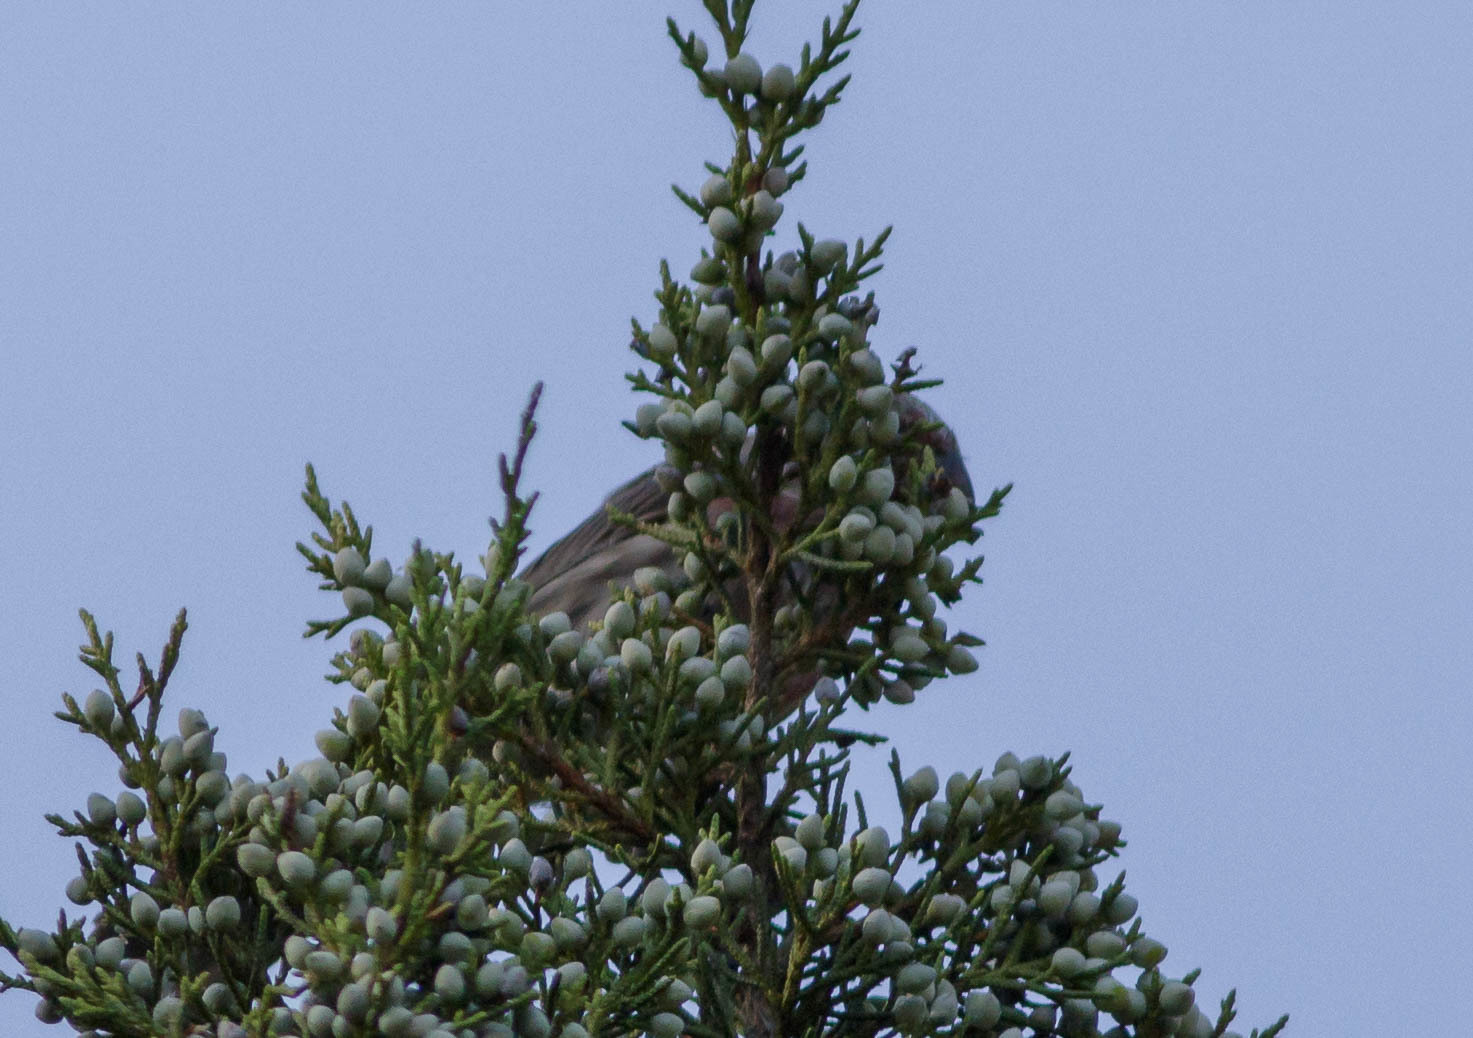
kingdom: Animalia
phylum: Chordata
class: Aves
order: Passeriformes
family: Fringillidae
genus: Haemorhous
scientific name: Haemorhous mexicanus
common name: House finch
